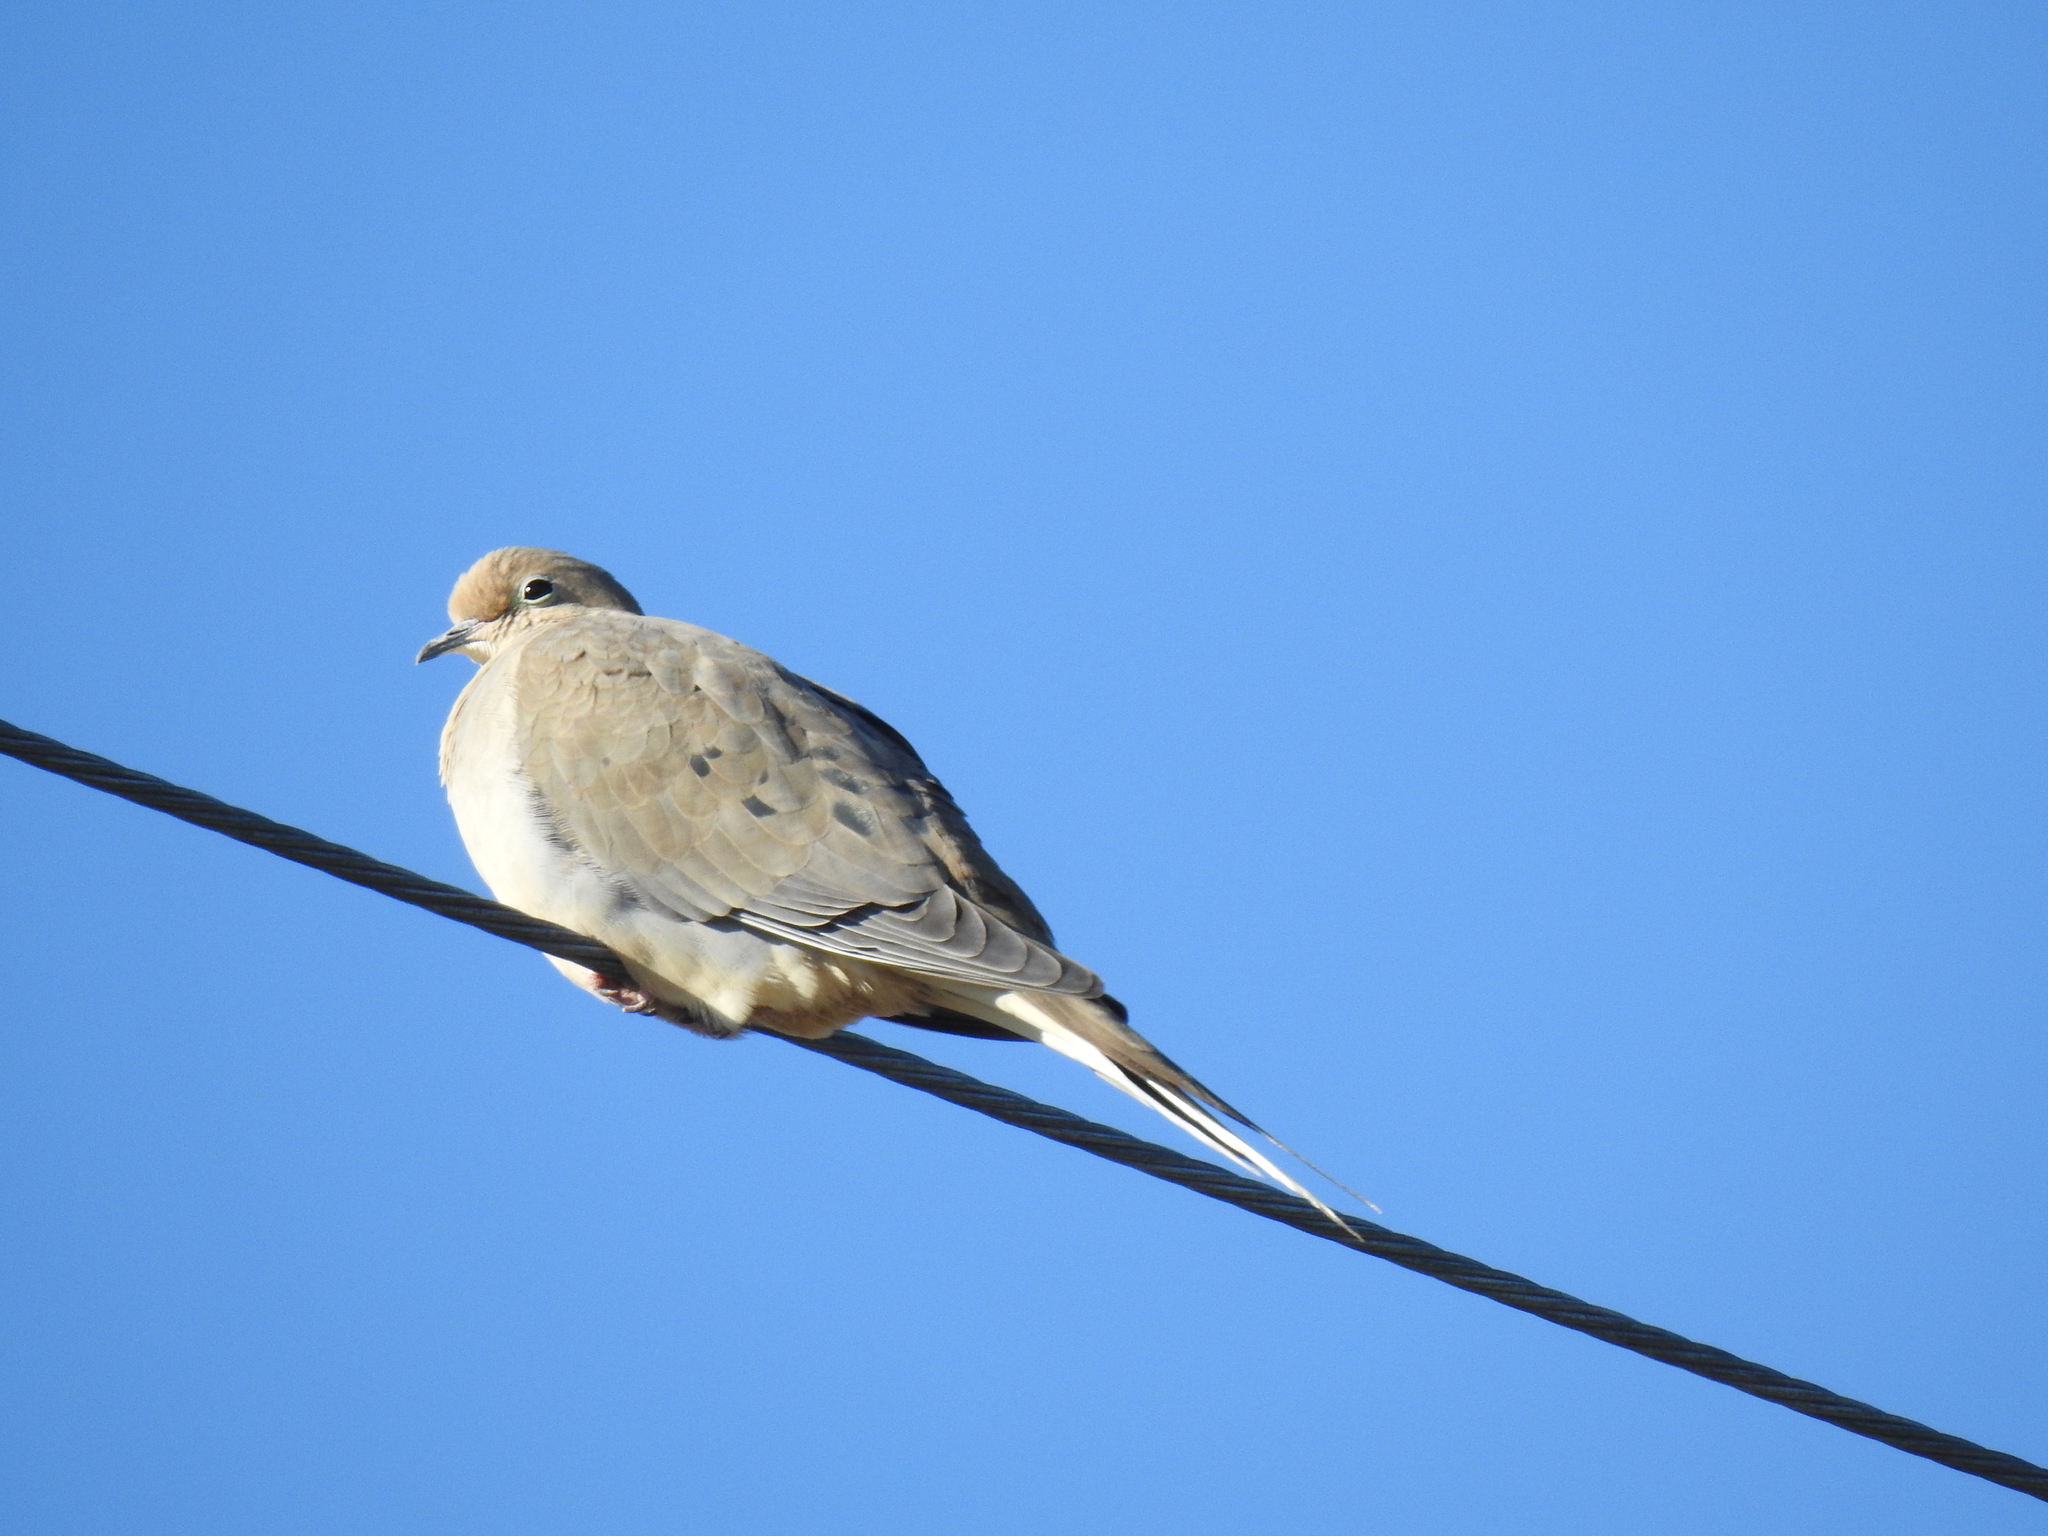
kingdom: Animalia
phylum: Chordata
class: Aves
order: Columbiformes
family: Columbidae
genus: Zenaida
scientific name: Zenaida macroura
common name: Mourning dove
